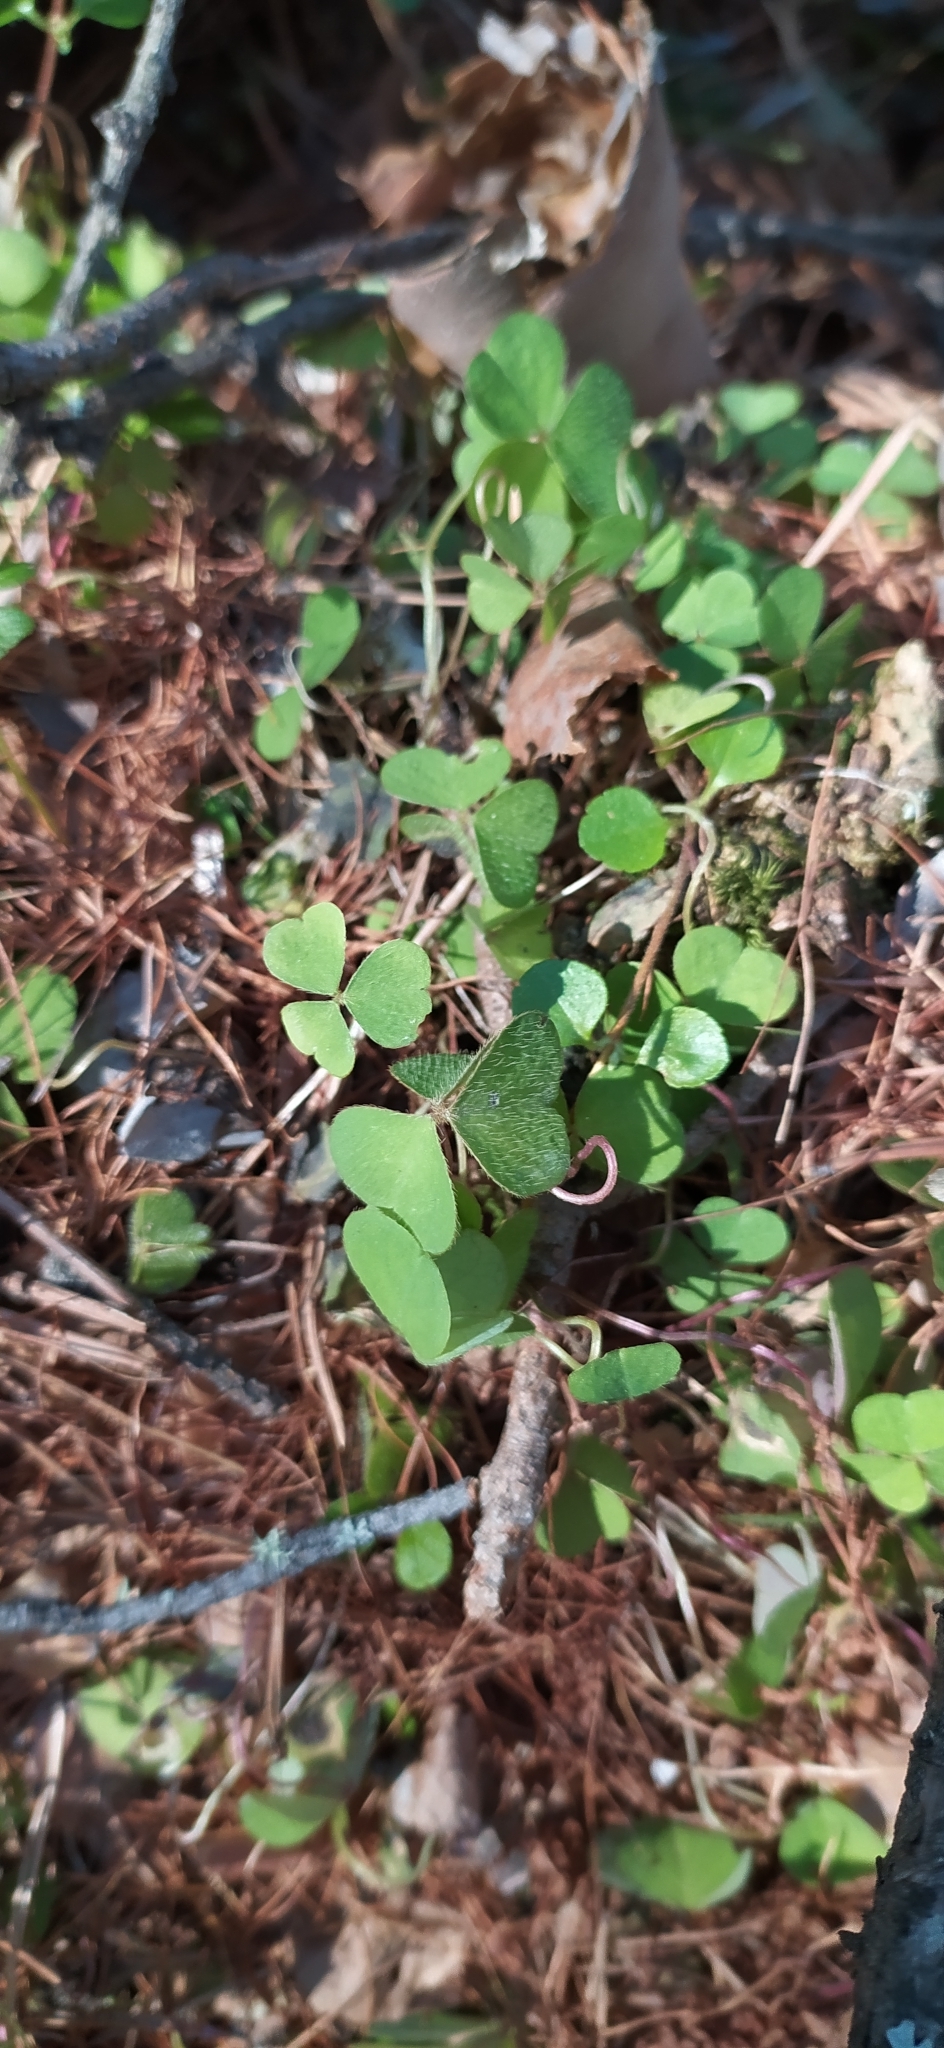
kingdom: Plantae
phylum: Tracheophyta
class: Magnoliopsida
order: Oxalidales
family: Oxalidaceae
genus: Oxalis
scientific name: Oxalis acetosella
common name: Wood-sorrel
